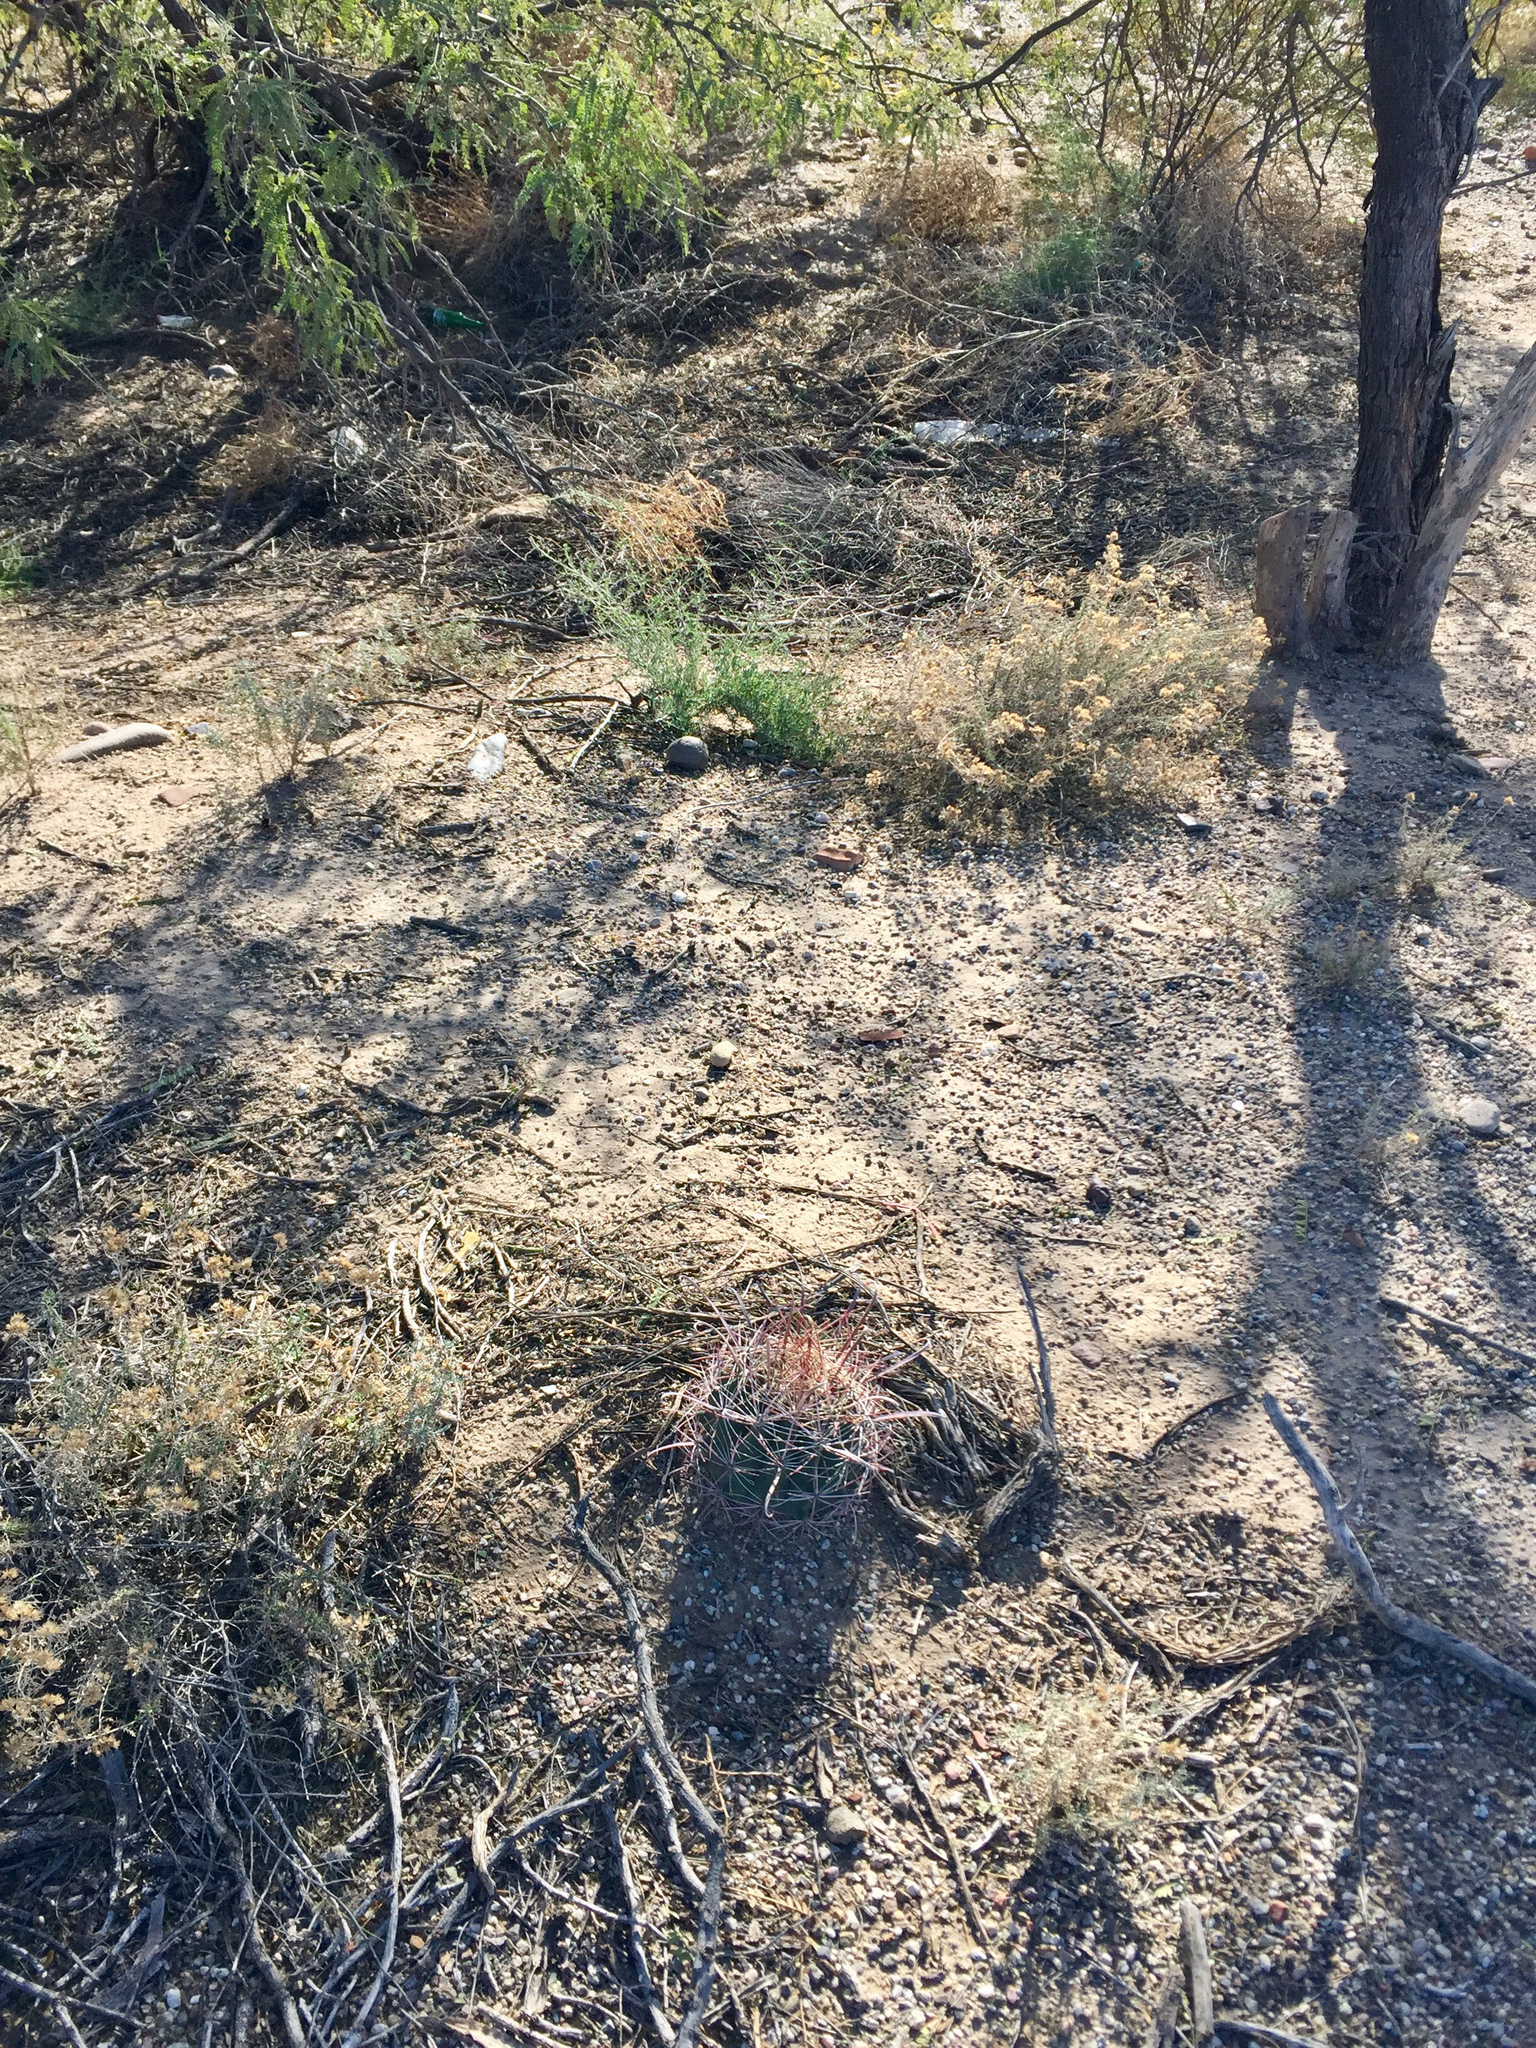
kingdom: Plantae
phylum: Tracheophyta
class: Magnoliopsida
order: Caryophyllales
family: Cactaceae
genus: Ferocactus
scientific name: Ferocactus wislizeni
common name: Candy barrel cactus
